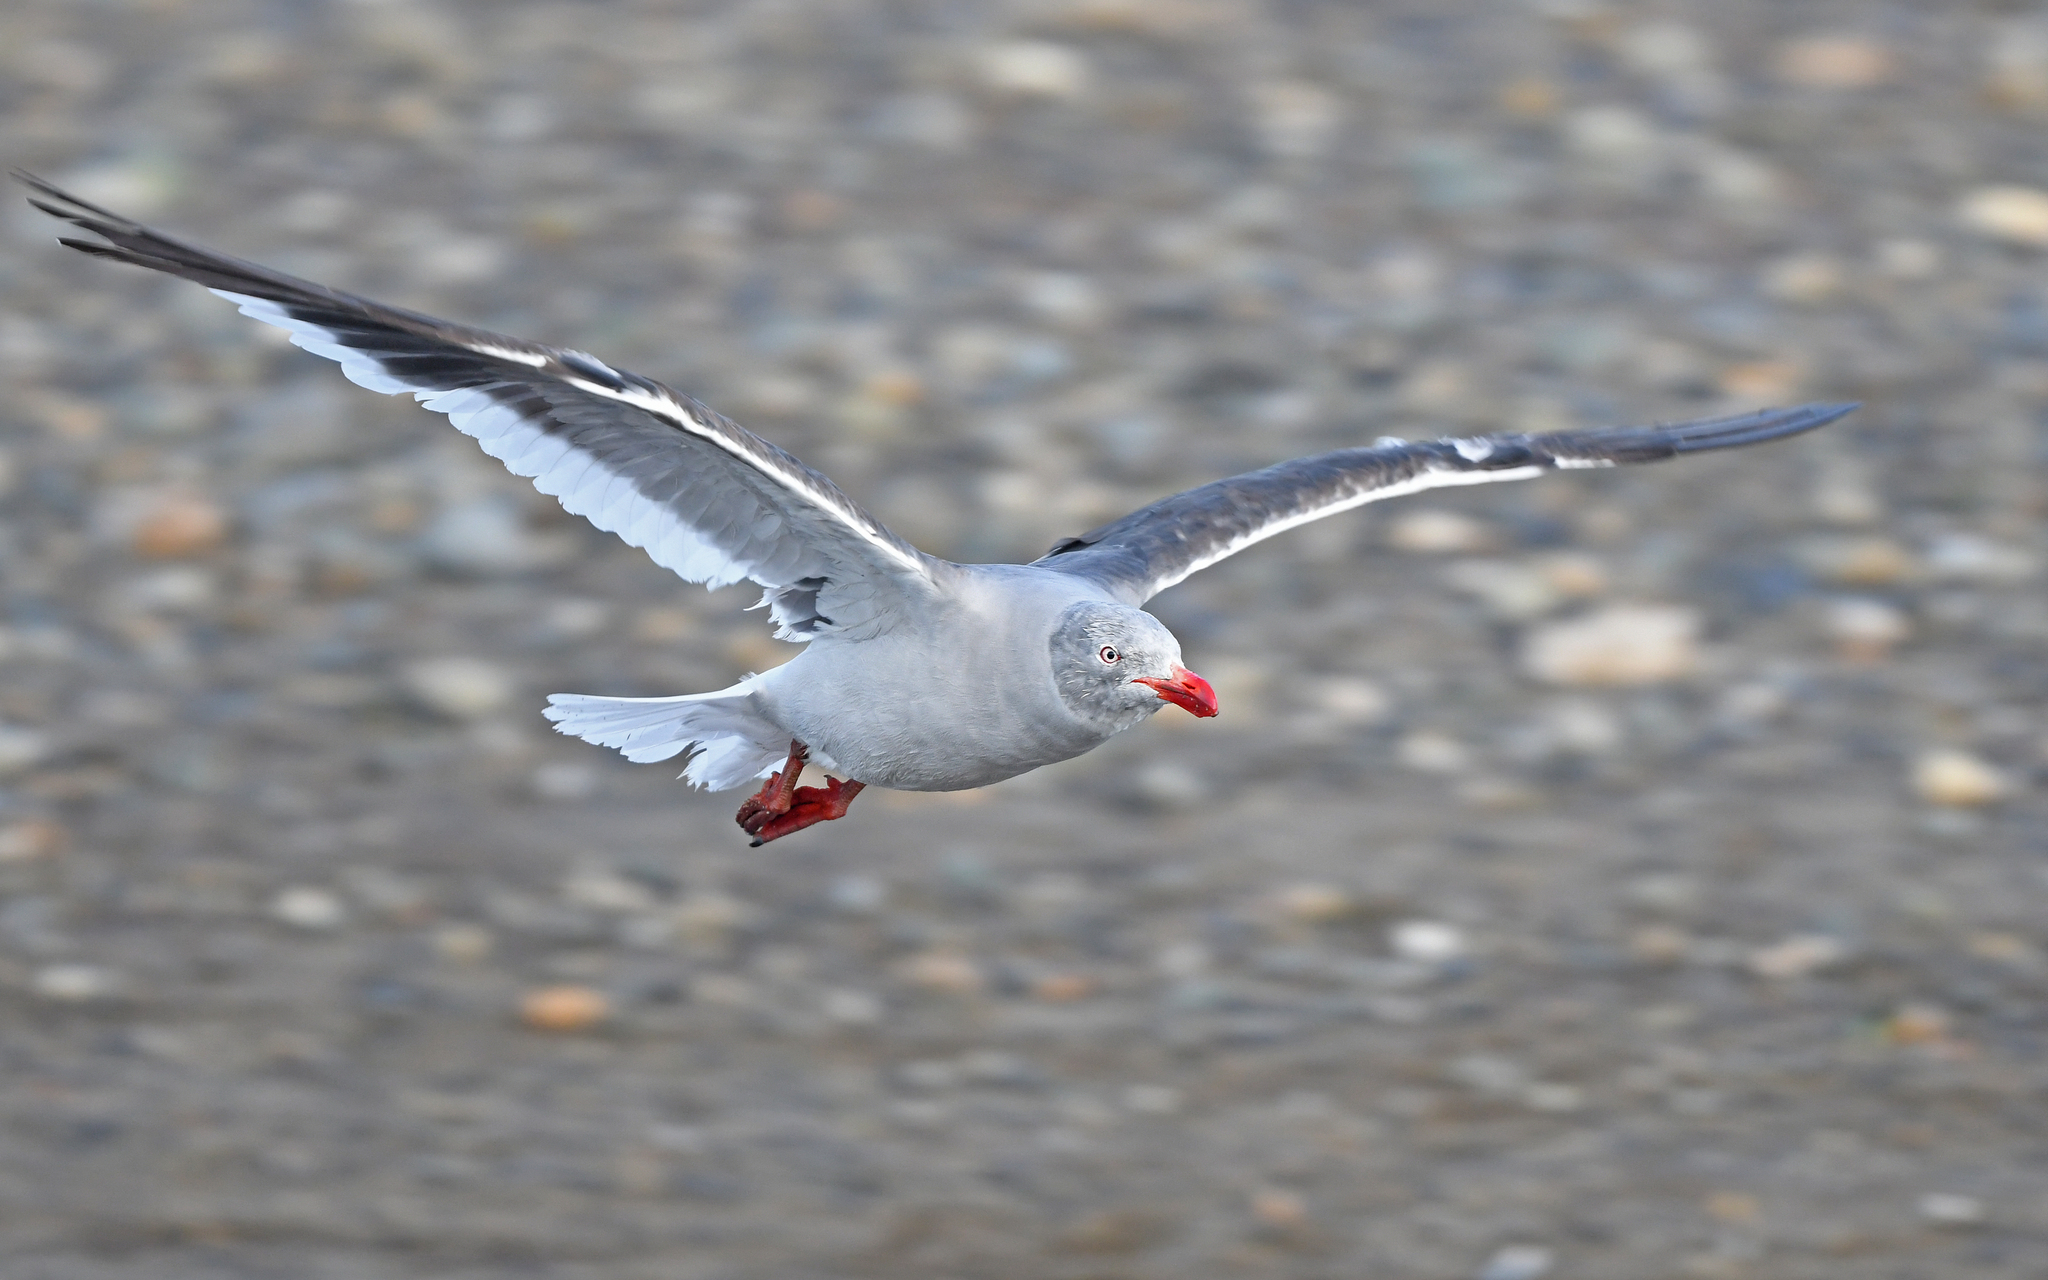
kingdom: Animalia
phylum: Chordata
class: Aves
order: Charadriiformes
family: Laridae
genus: Leucophaeus
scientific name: Leucophaeus scoresbii
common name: Dolphin gull
